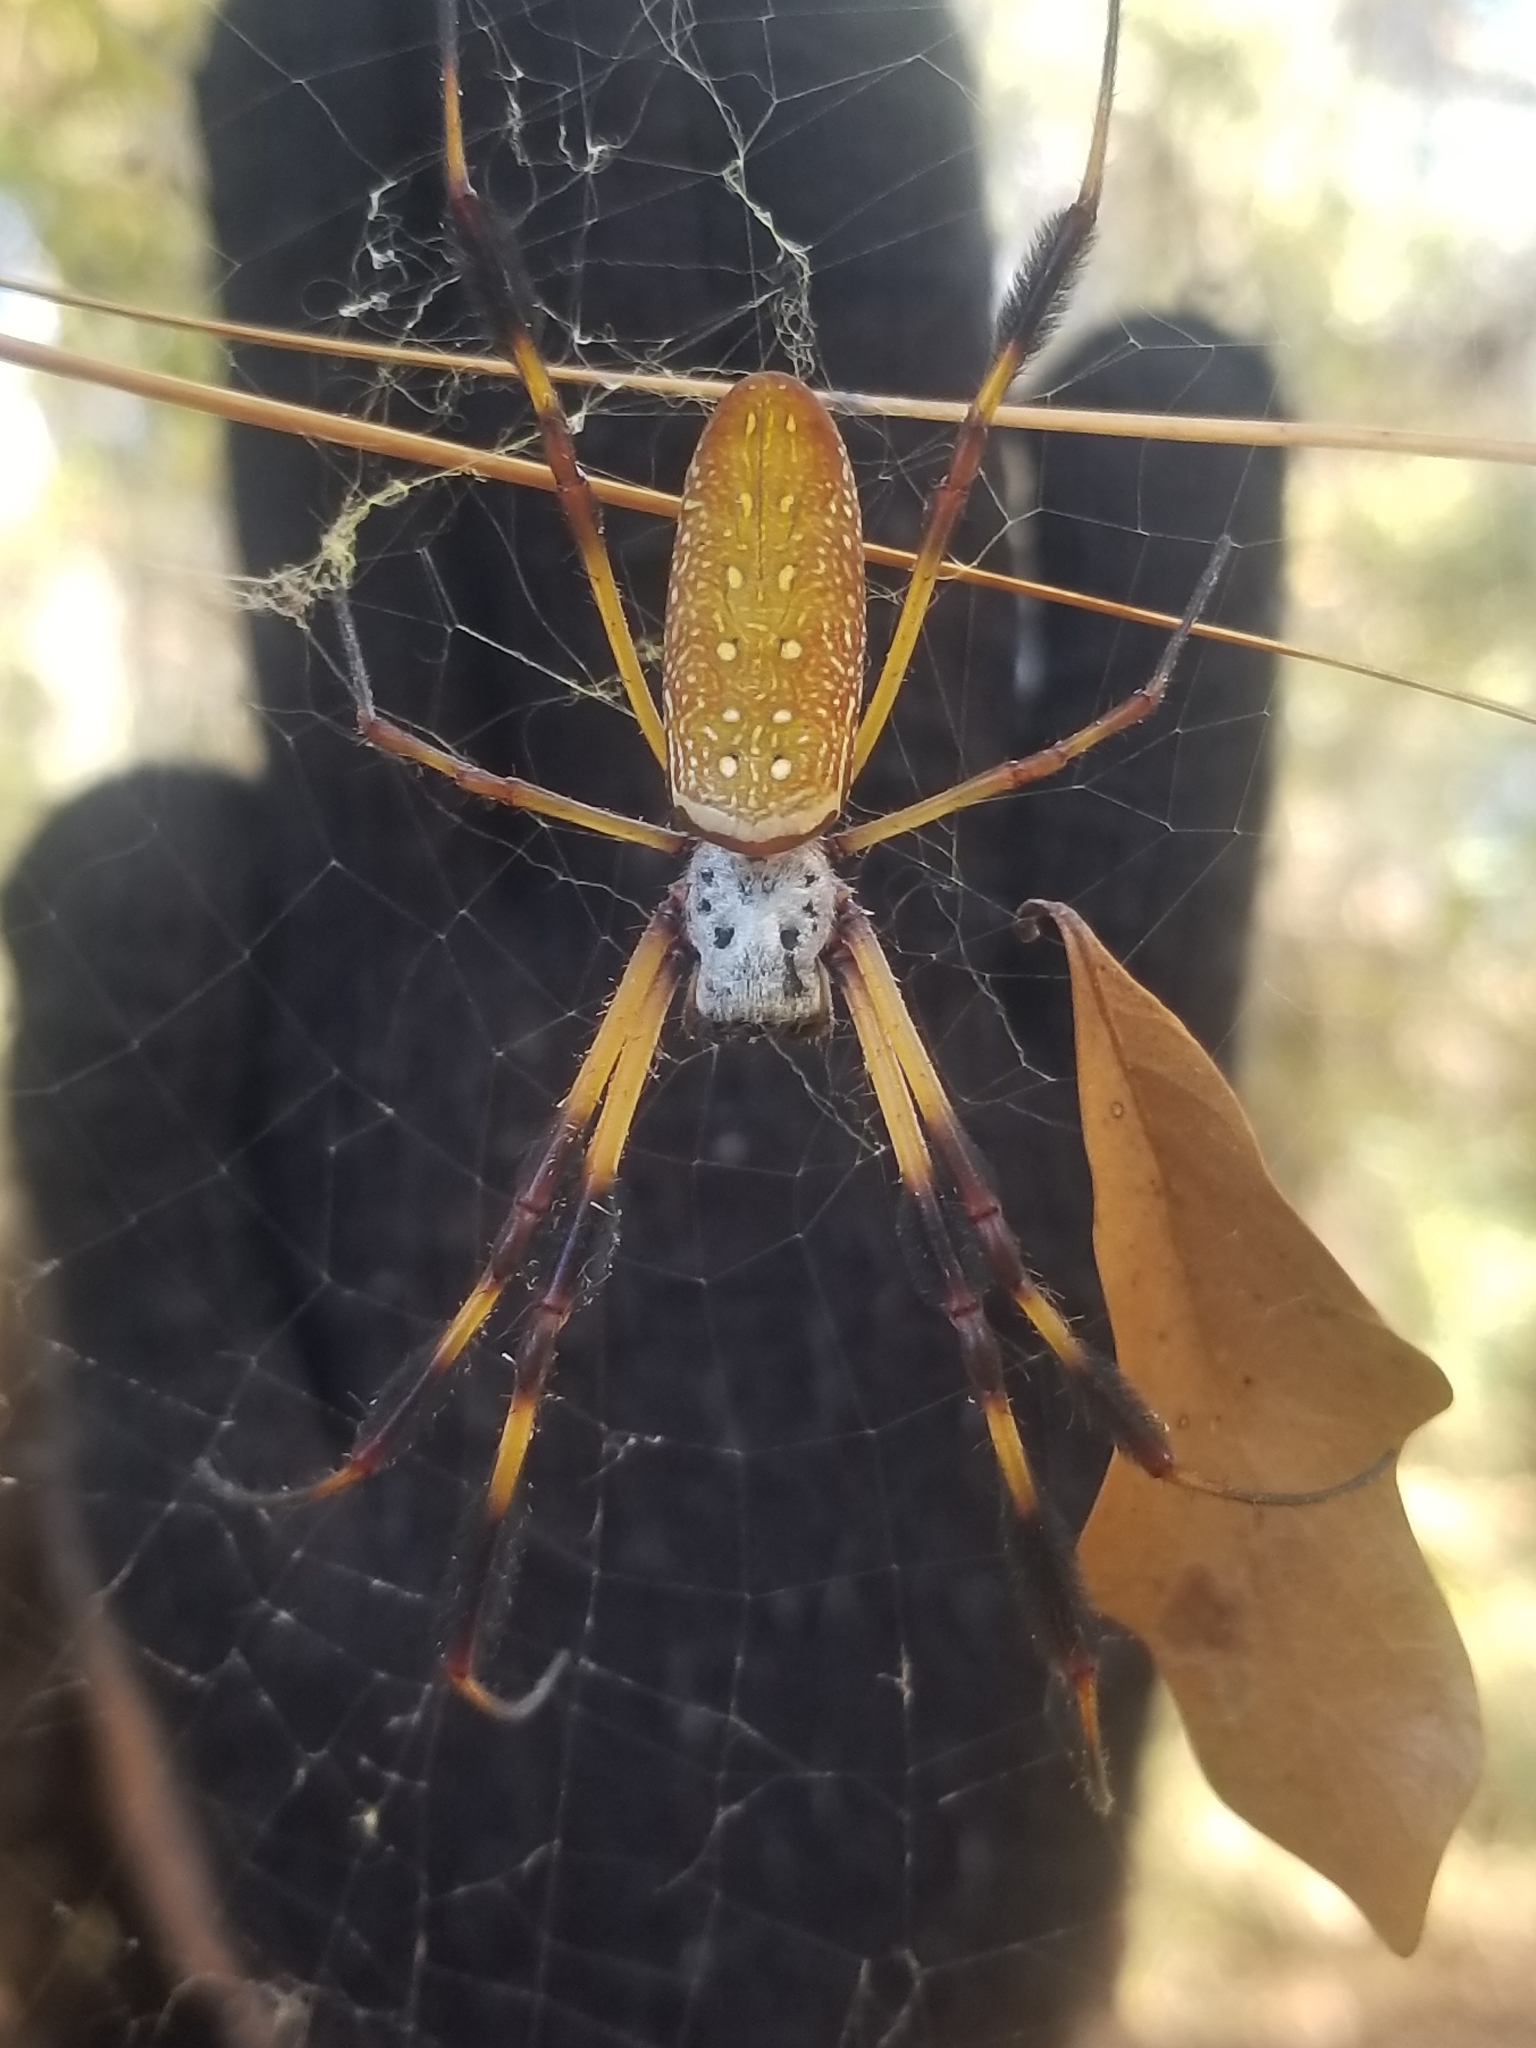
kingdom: Animalia
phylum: Arthropoda
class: Arachnida
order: Araneae
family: Araneidae
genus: Trichonephila
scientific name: Trichonephila clavipes
